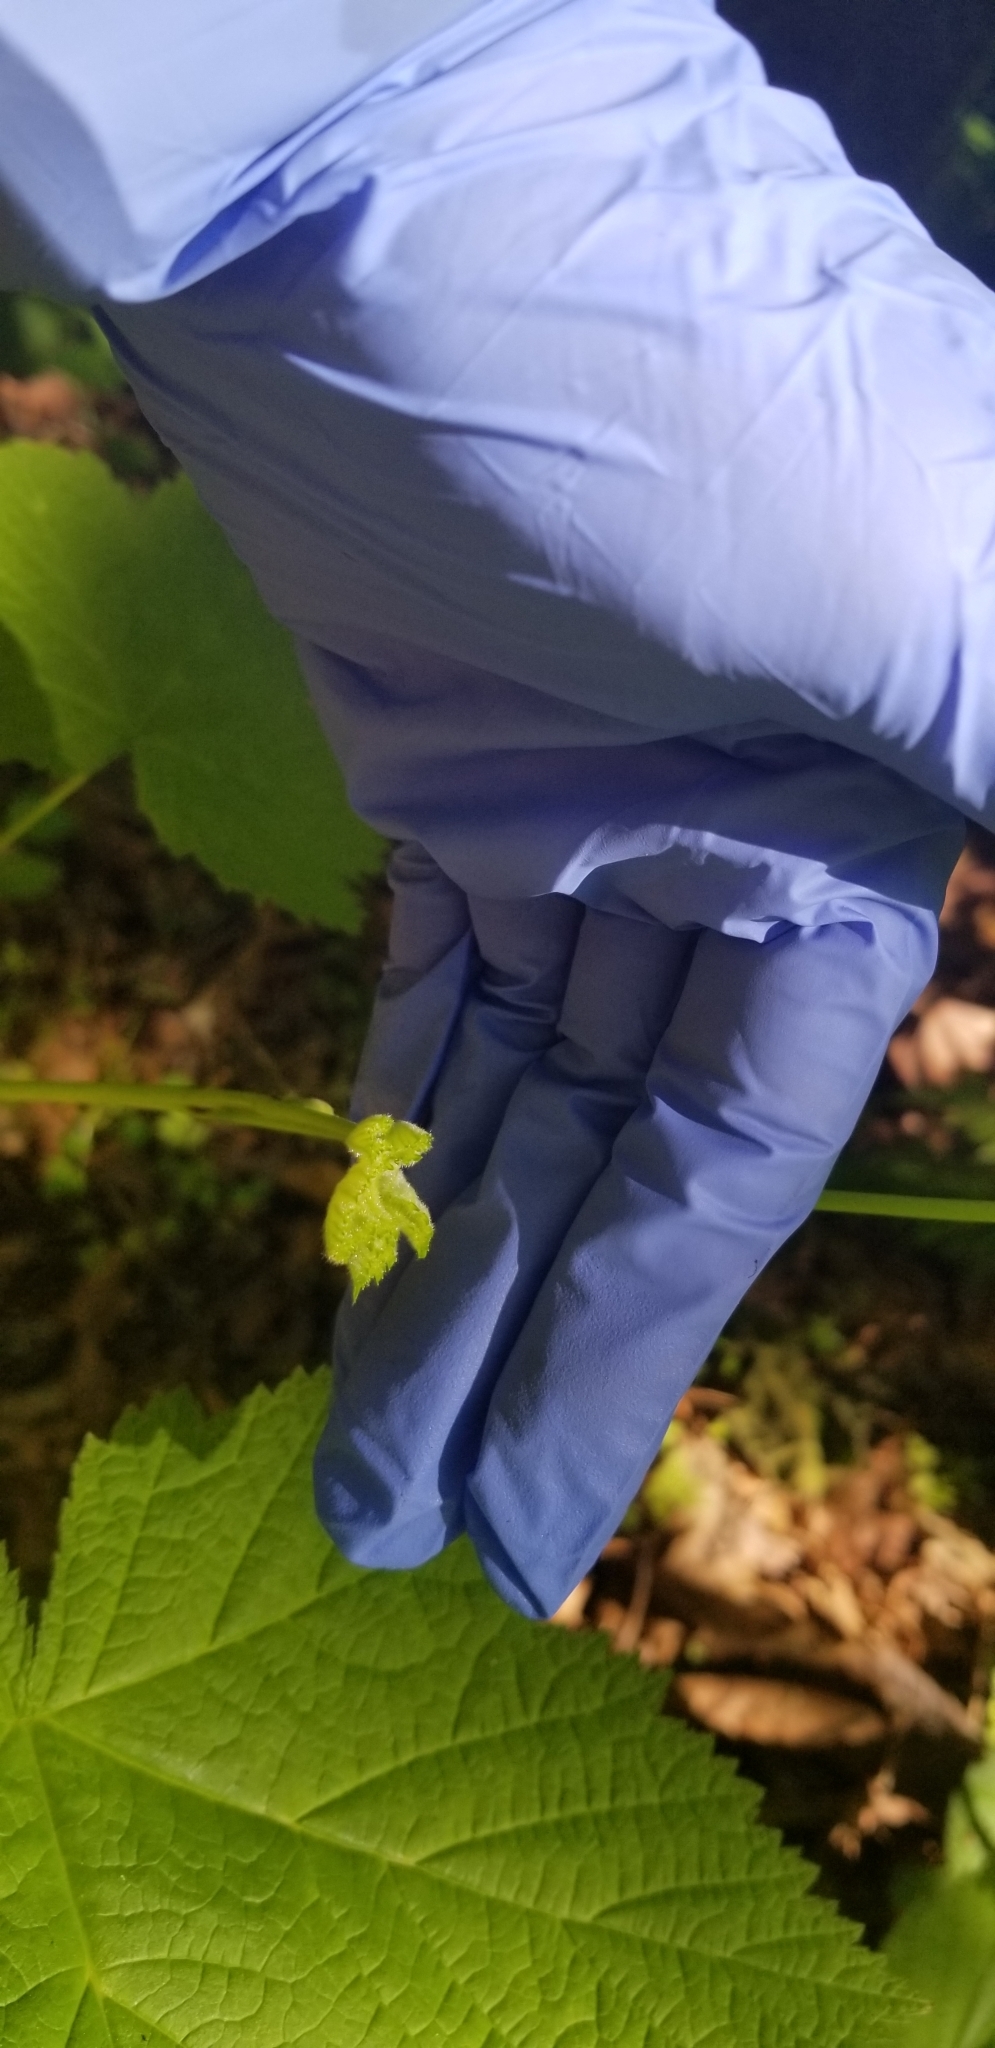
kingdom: Plantae
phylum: Tracheophyta
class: Magnoliopsida
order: Rosales
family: Rosaceae
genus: Rubus
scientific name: Rubus parviflorus
